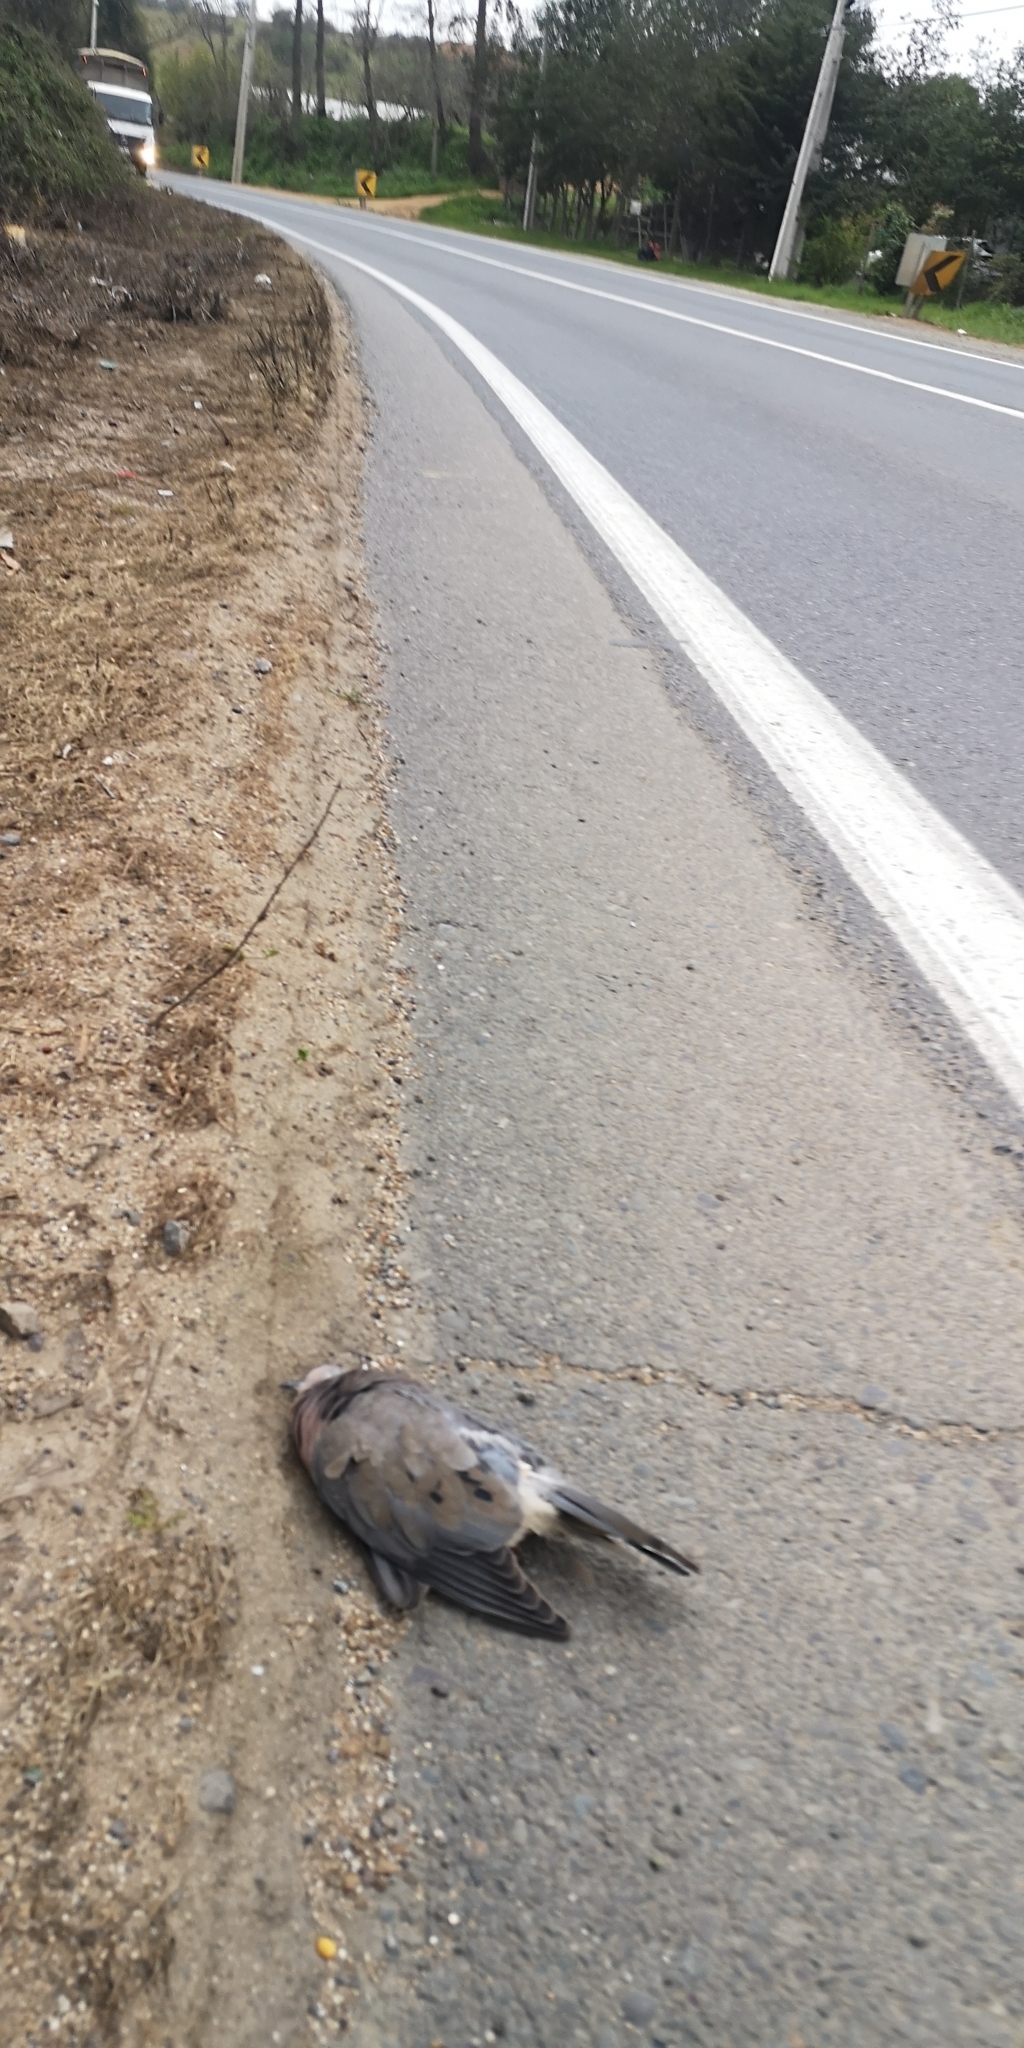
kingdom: Animalia
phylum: Chordata
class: Aves
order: Columbiformes
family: Columbidae
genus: Zenaida
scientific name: Zenaida auriculata
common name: Eared dove
